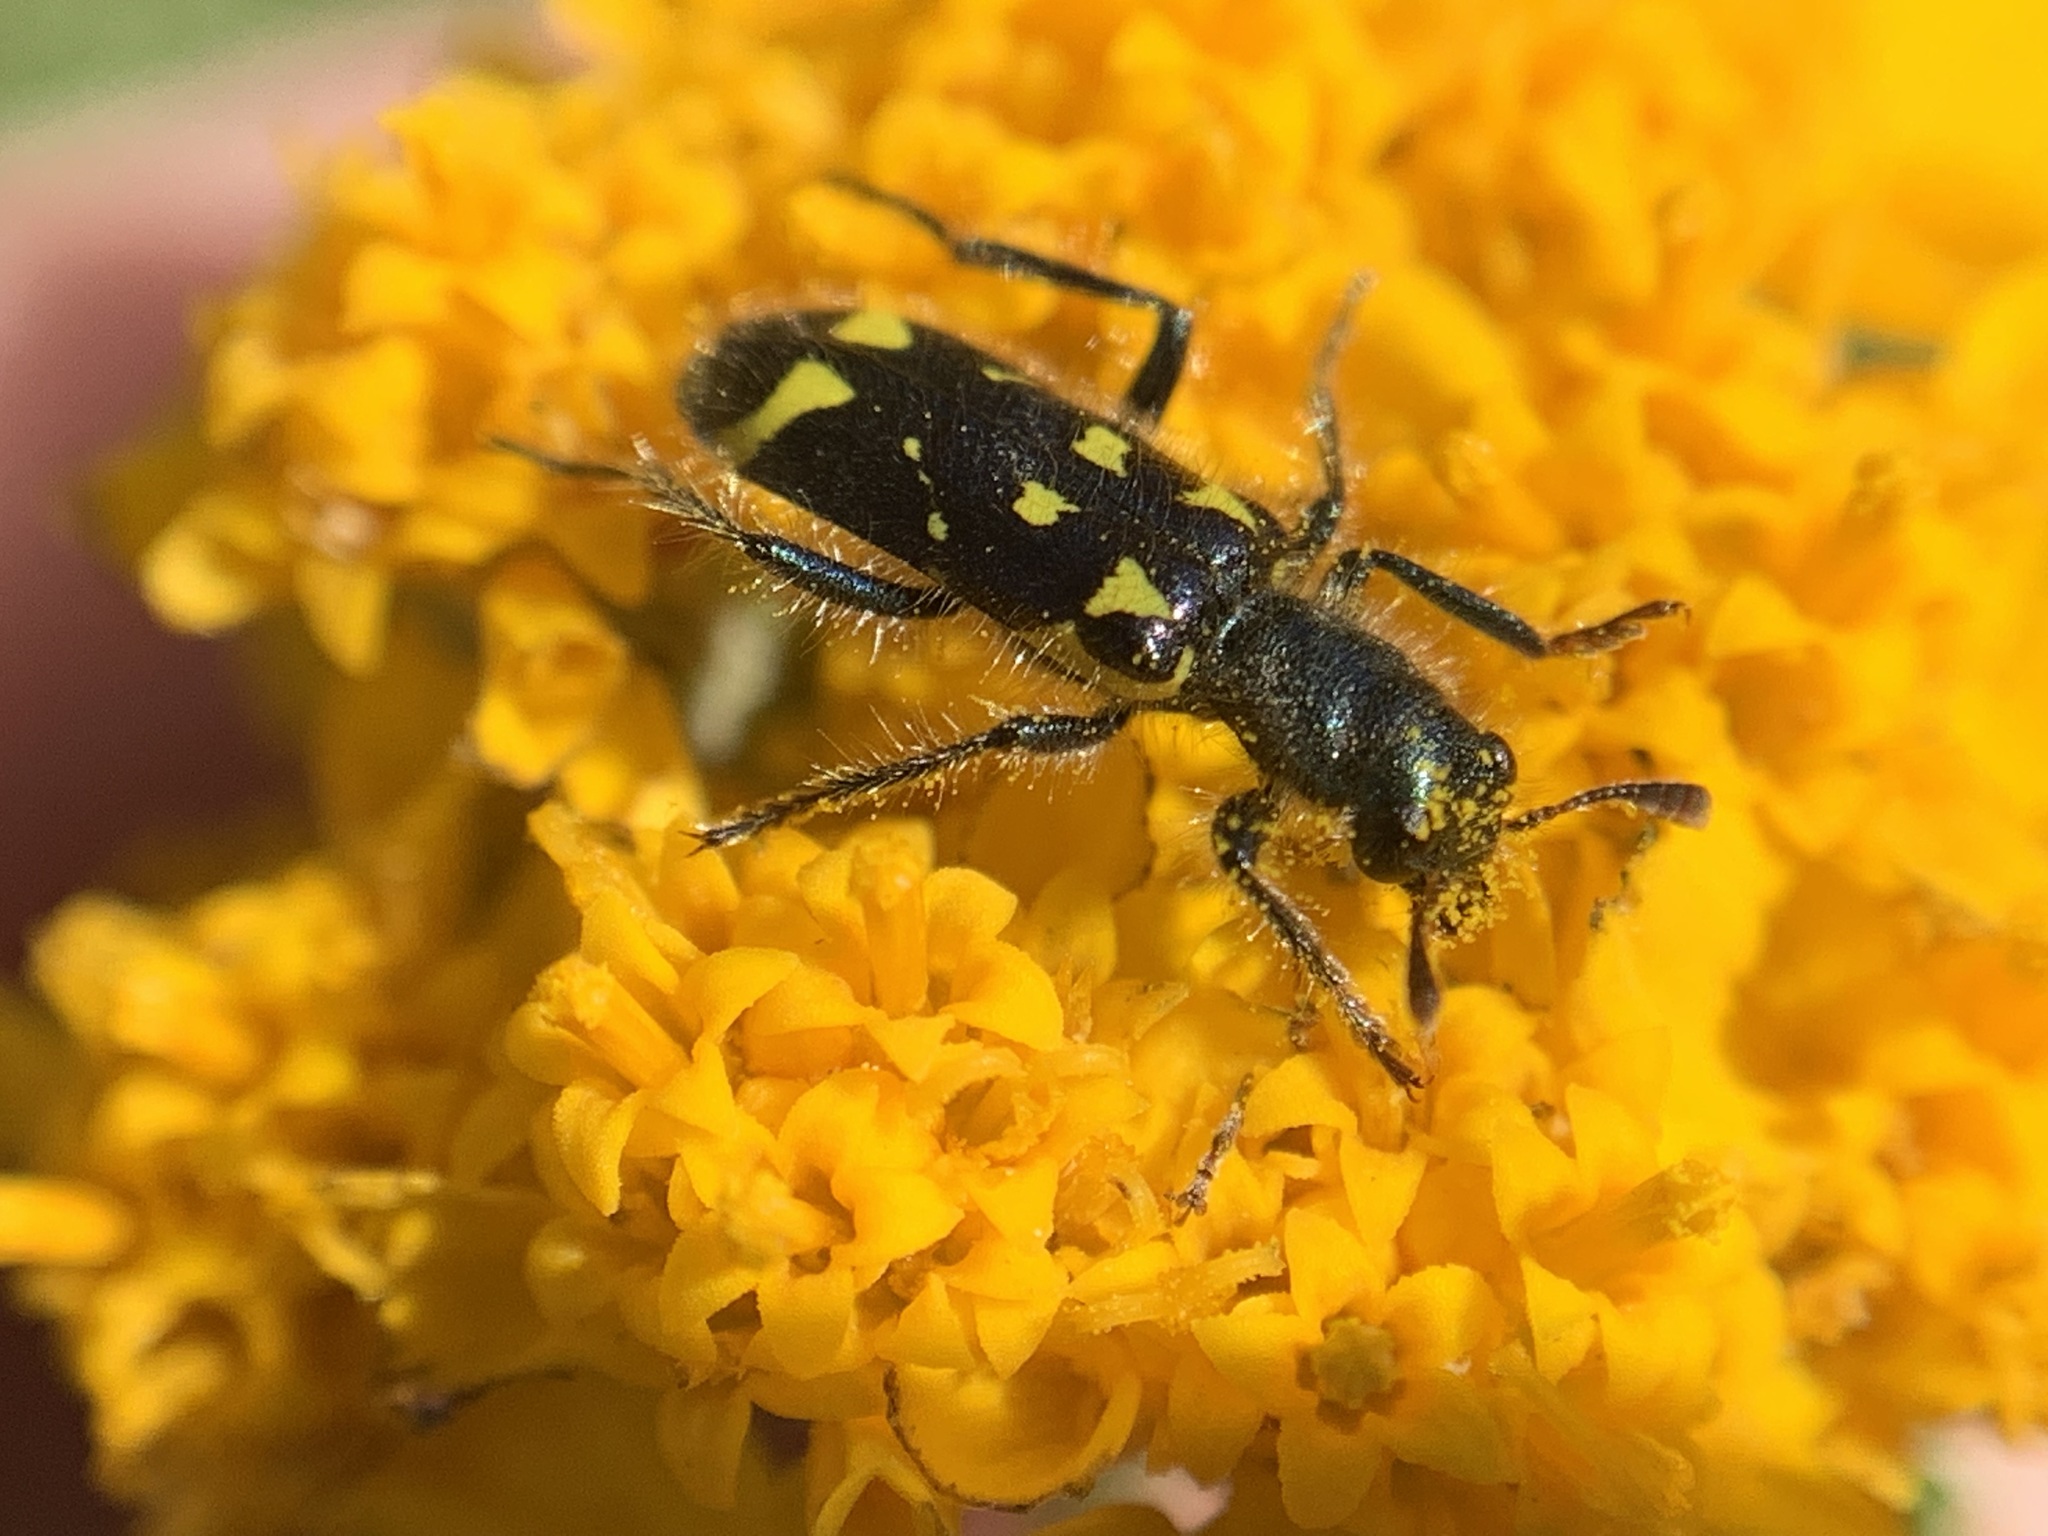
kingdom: Animalia
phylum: Arthropoda
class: Insecta
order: Coleoptera
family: Cleridae
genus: Trichodes
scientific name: Trichodes ornatus
